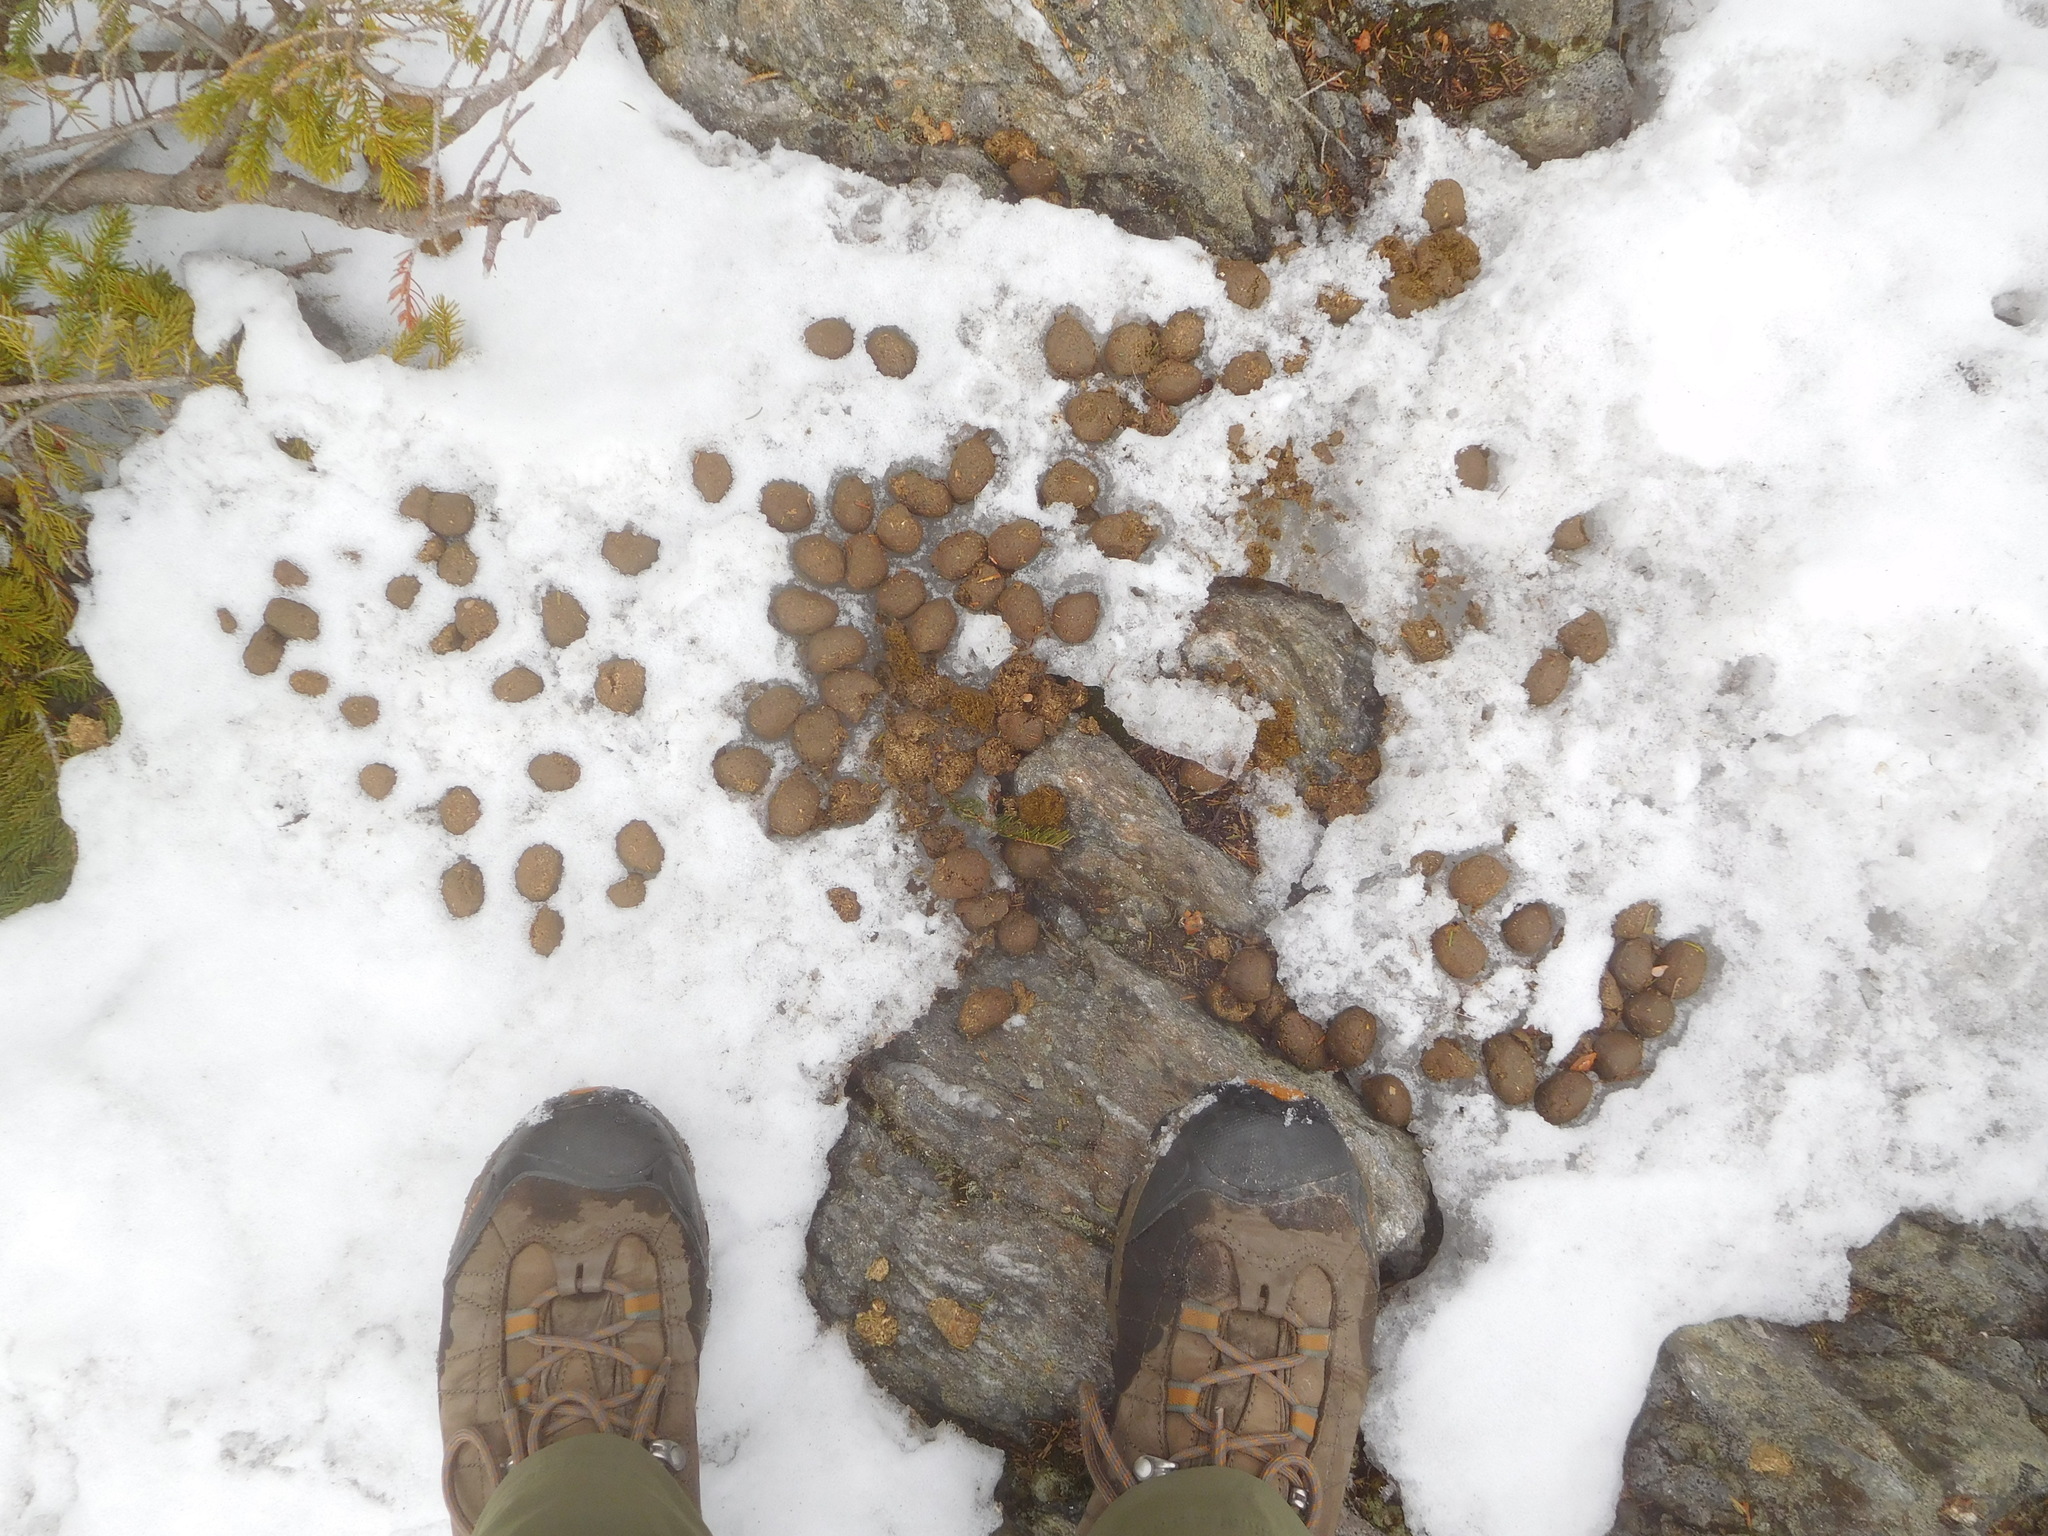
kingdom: Animalia
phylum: Chordata
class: Mammalia
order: Artiodactyla
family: Cervidae
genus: Alces
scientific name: Alces alces
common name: Moose
